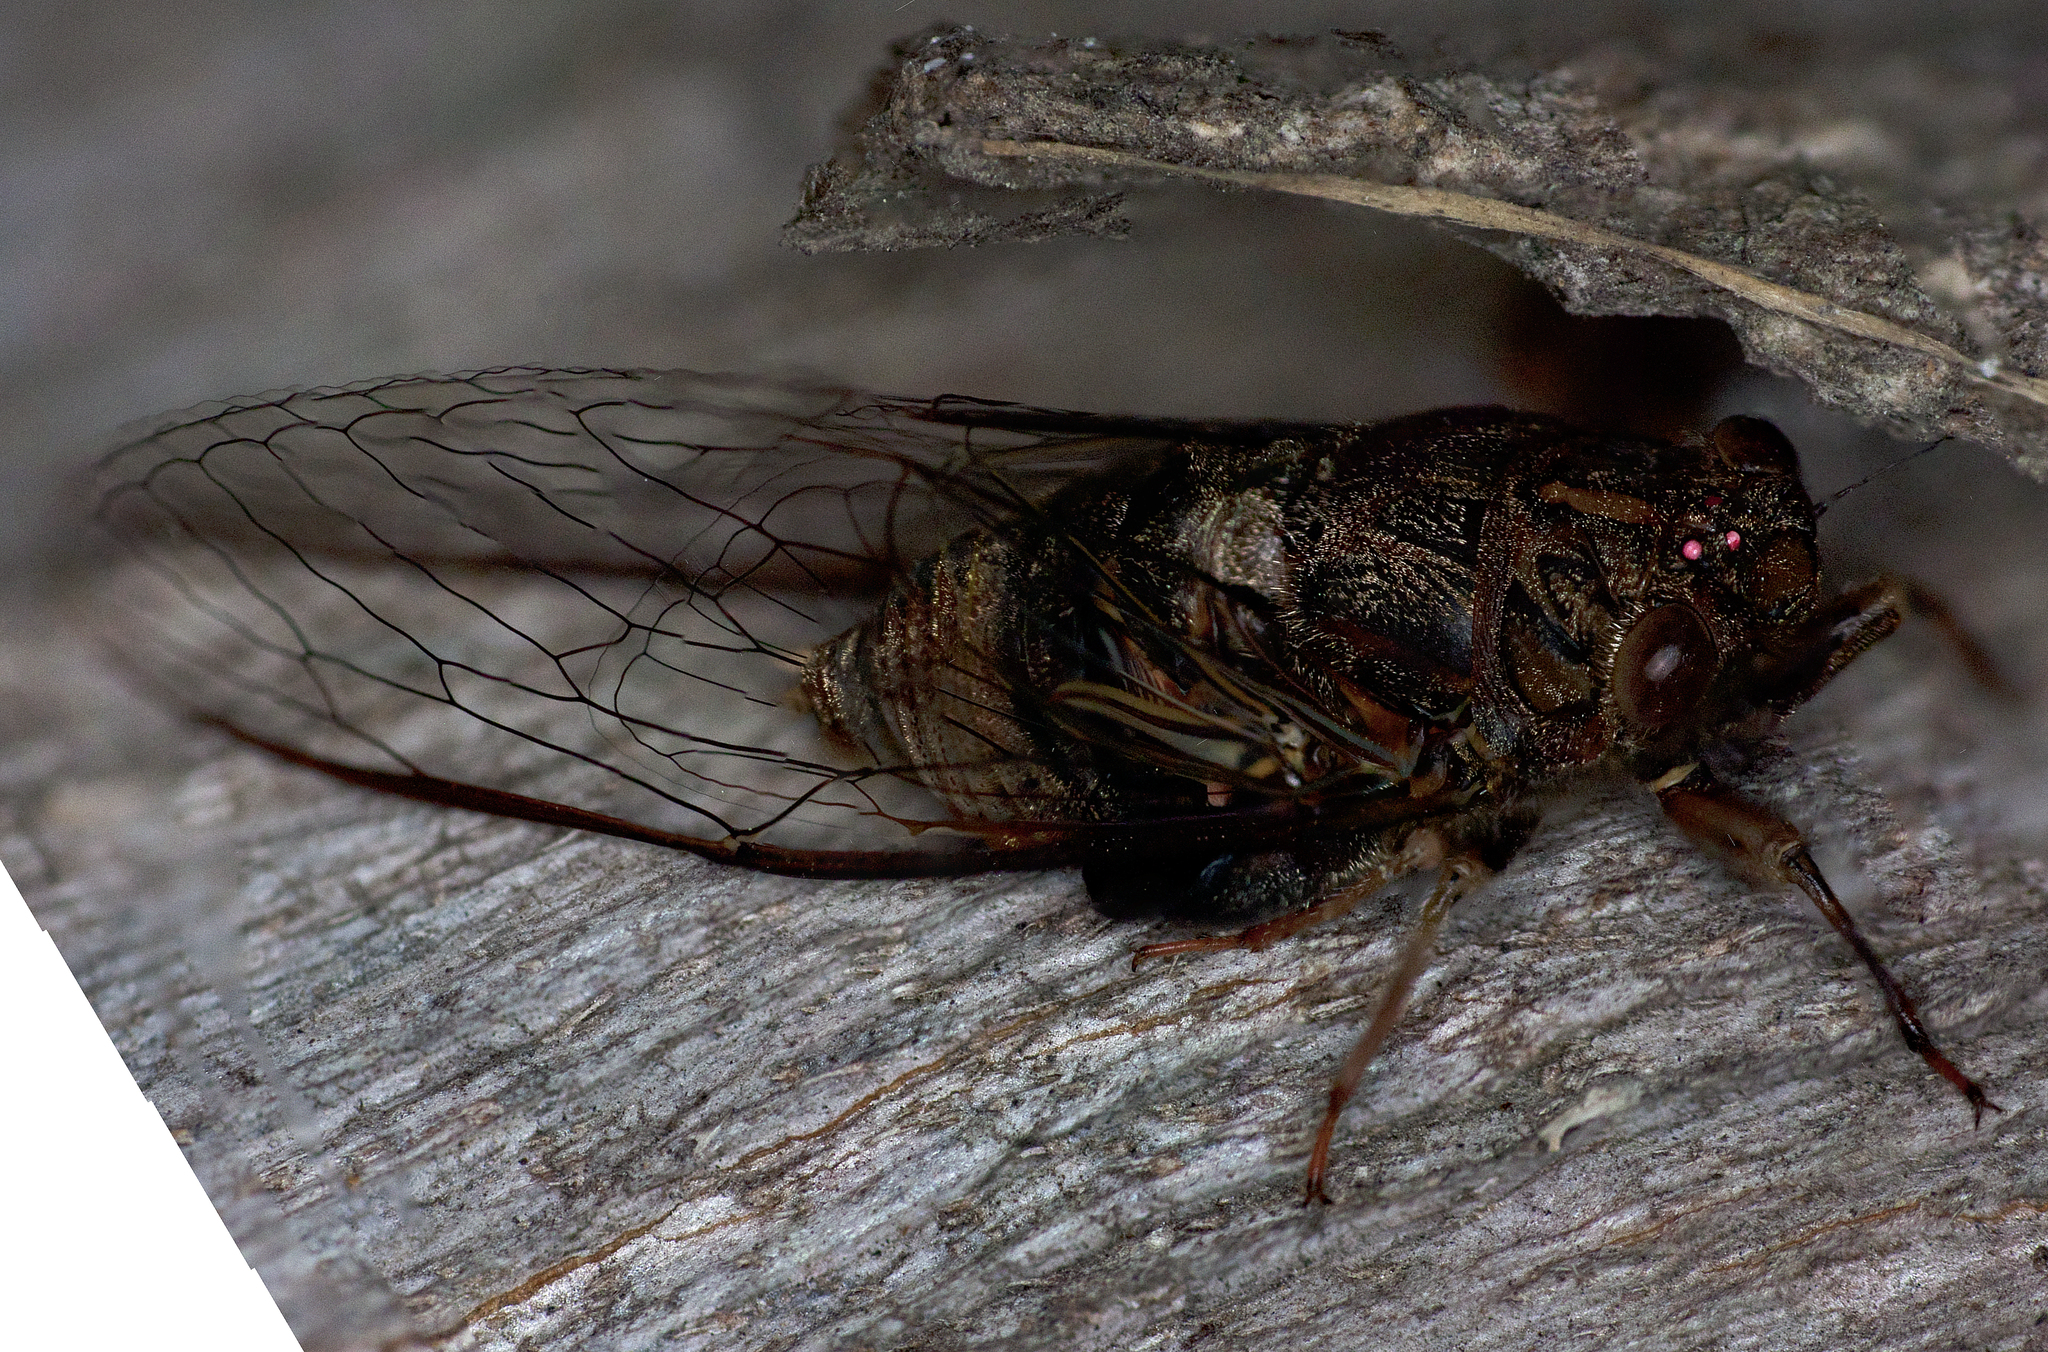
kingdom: Animalia
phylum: Arthropoda
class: Insecta
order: Hemiptera
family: Cicadidae
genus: Birrima
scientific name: Birrima varians
